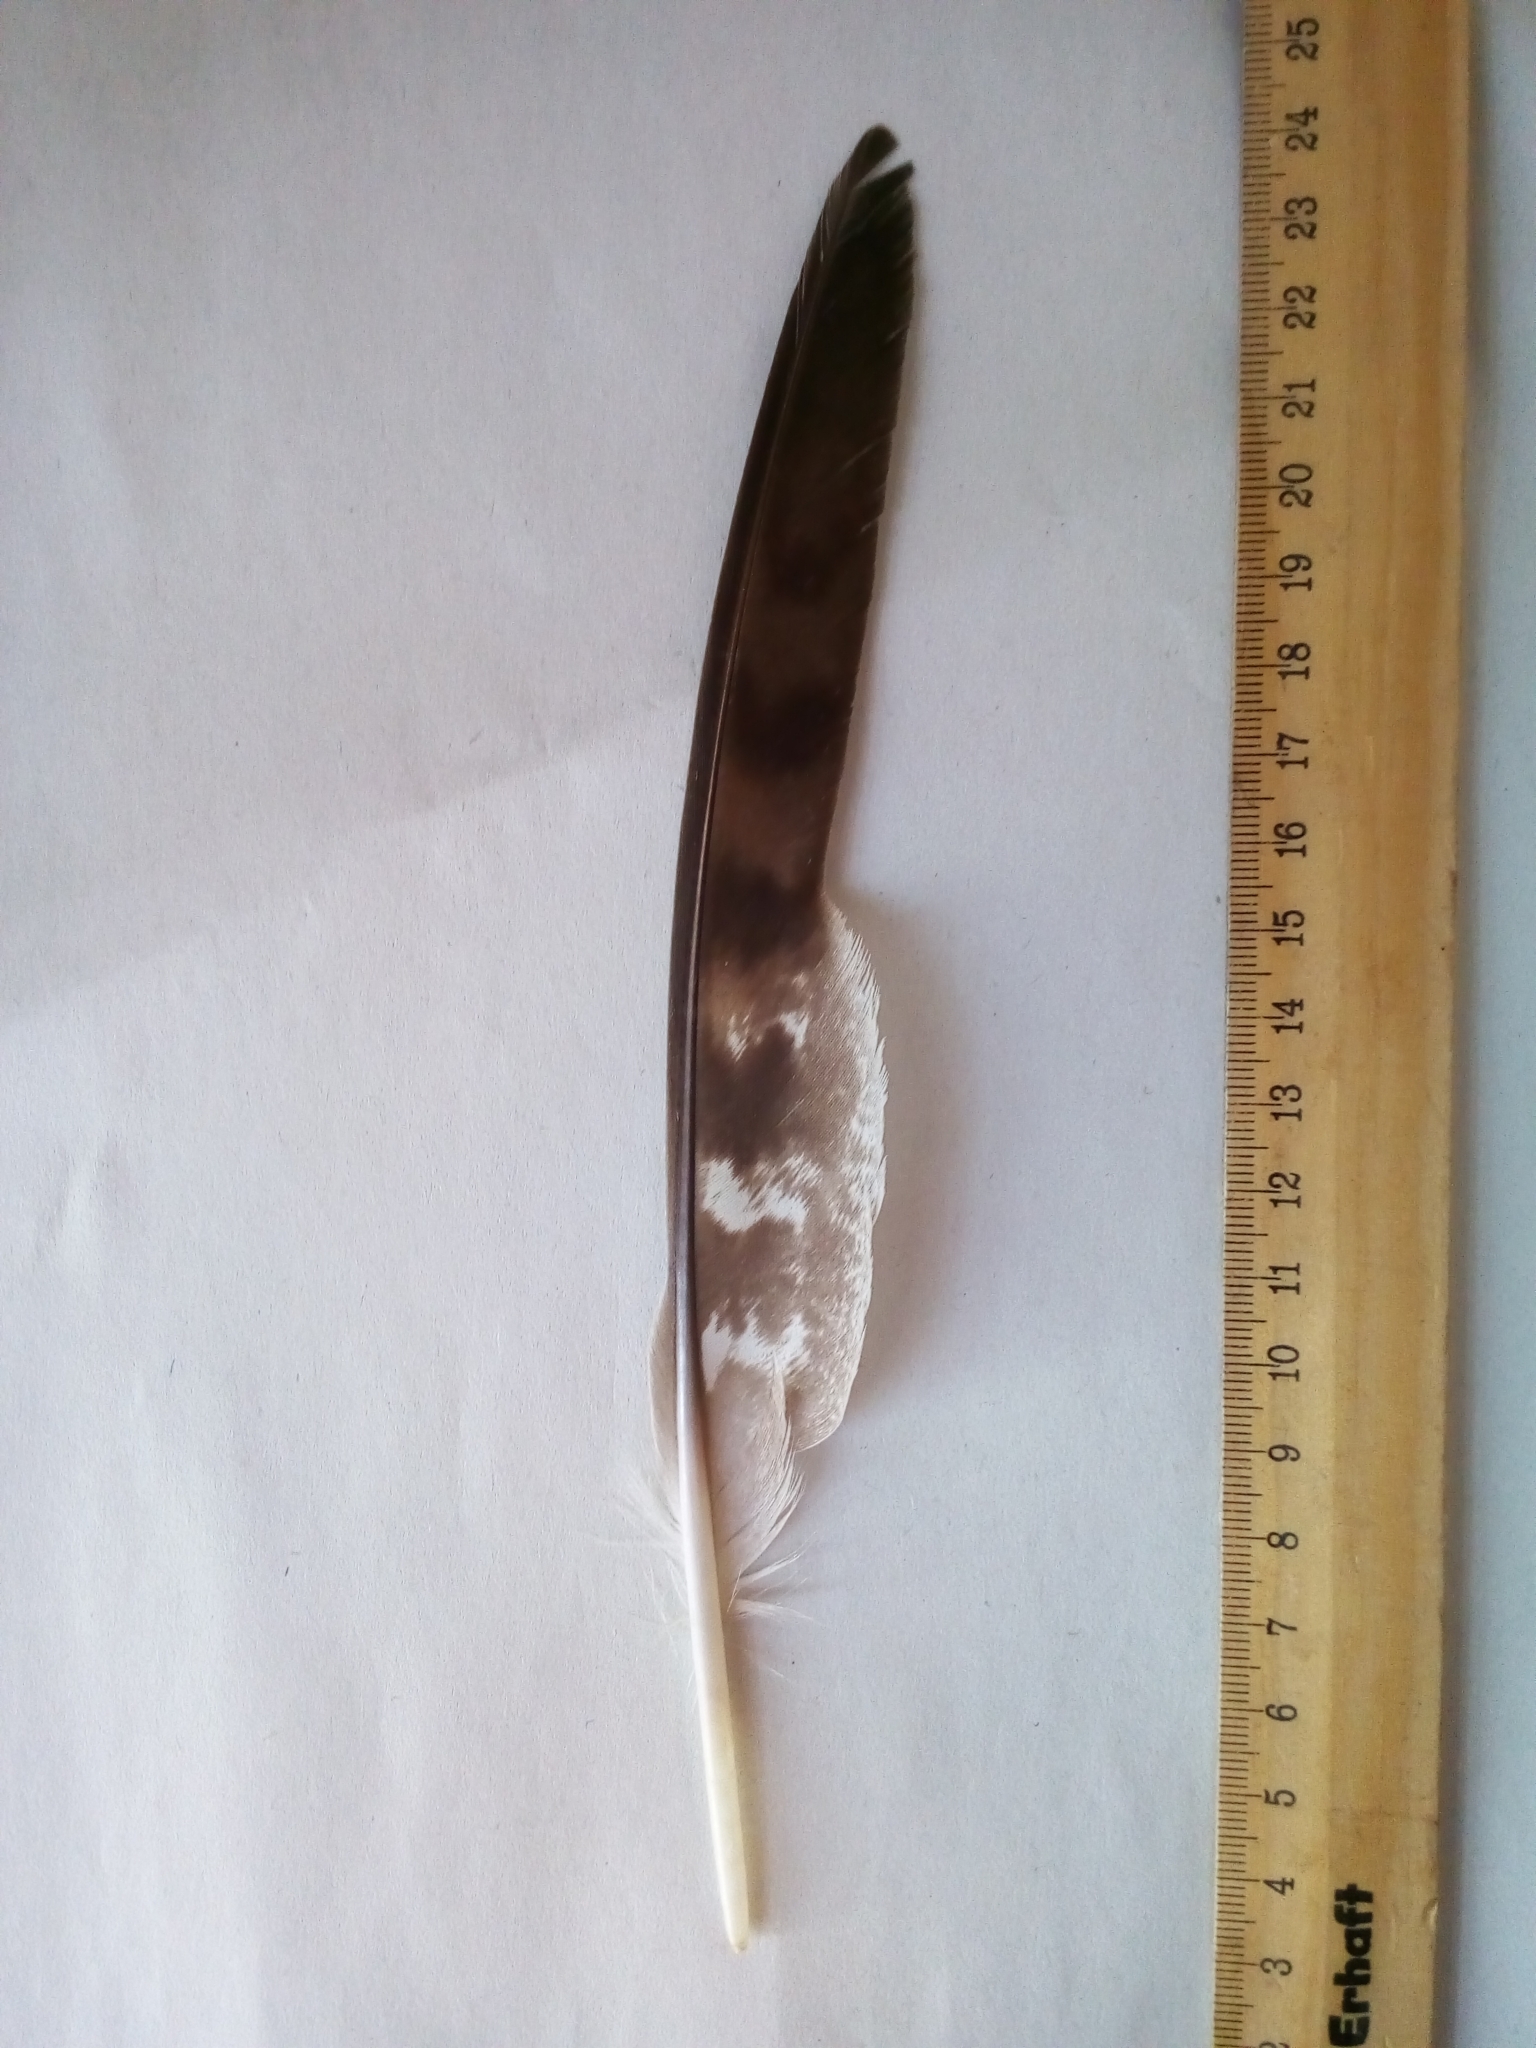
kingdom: Animalia
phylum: Chordata
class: Aves
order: Accipitriformes
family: Accipitridae
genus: Accipiter
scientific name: Accipiter gentilis
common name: Northern goshawk
